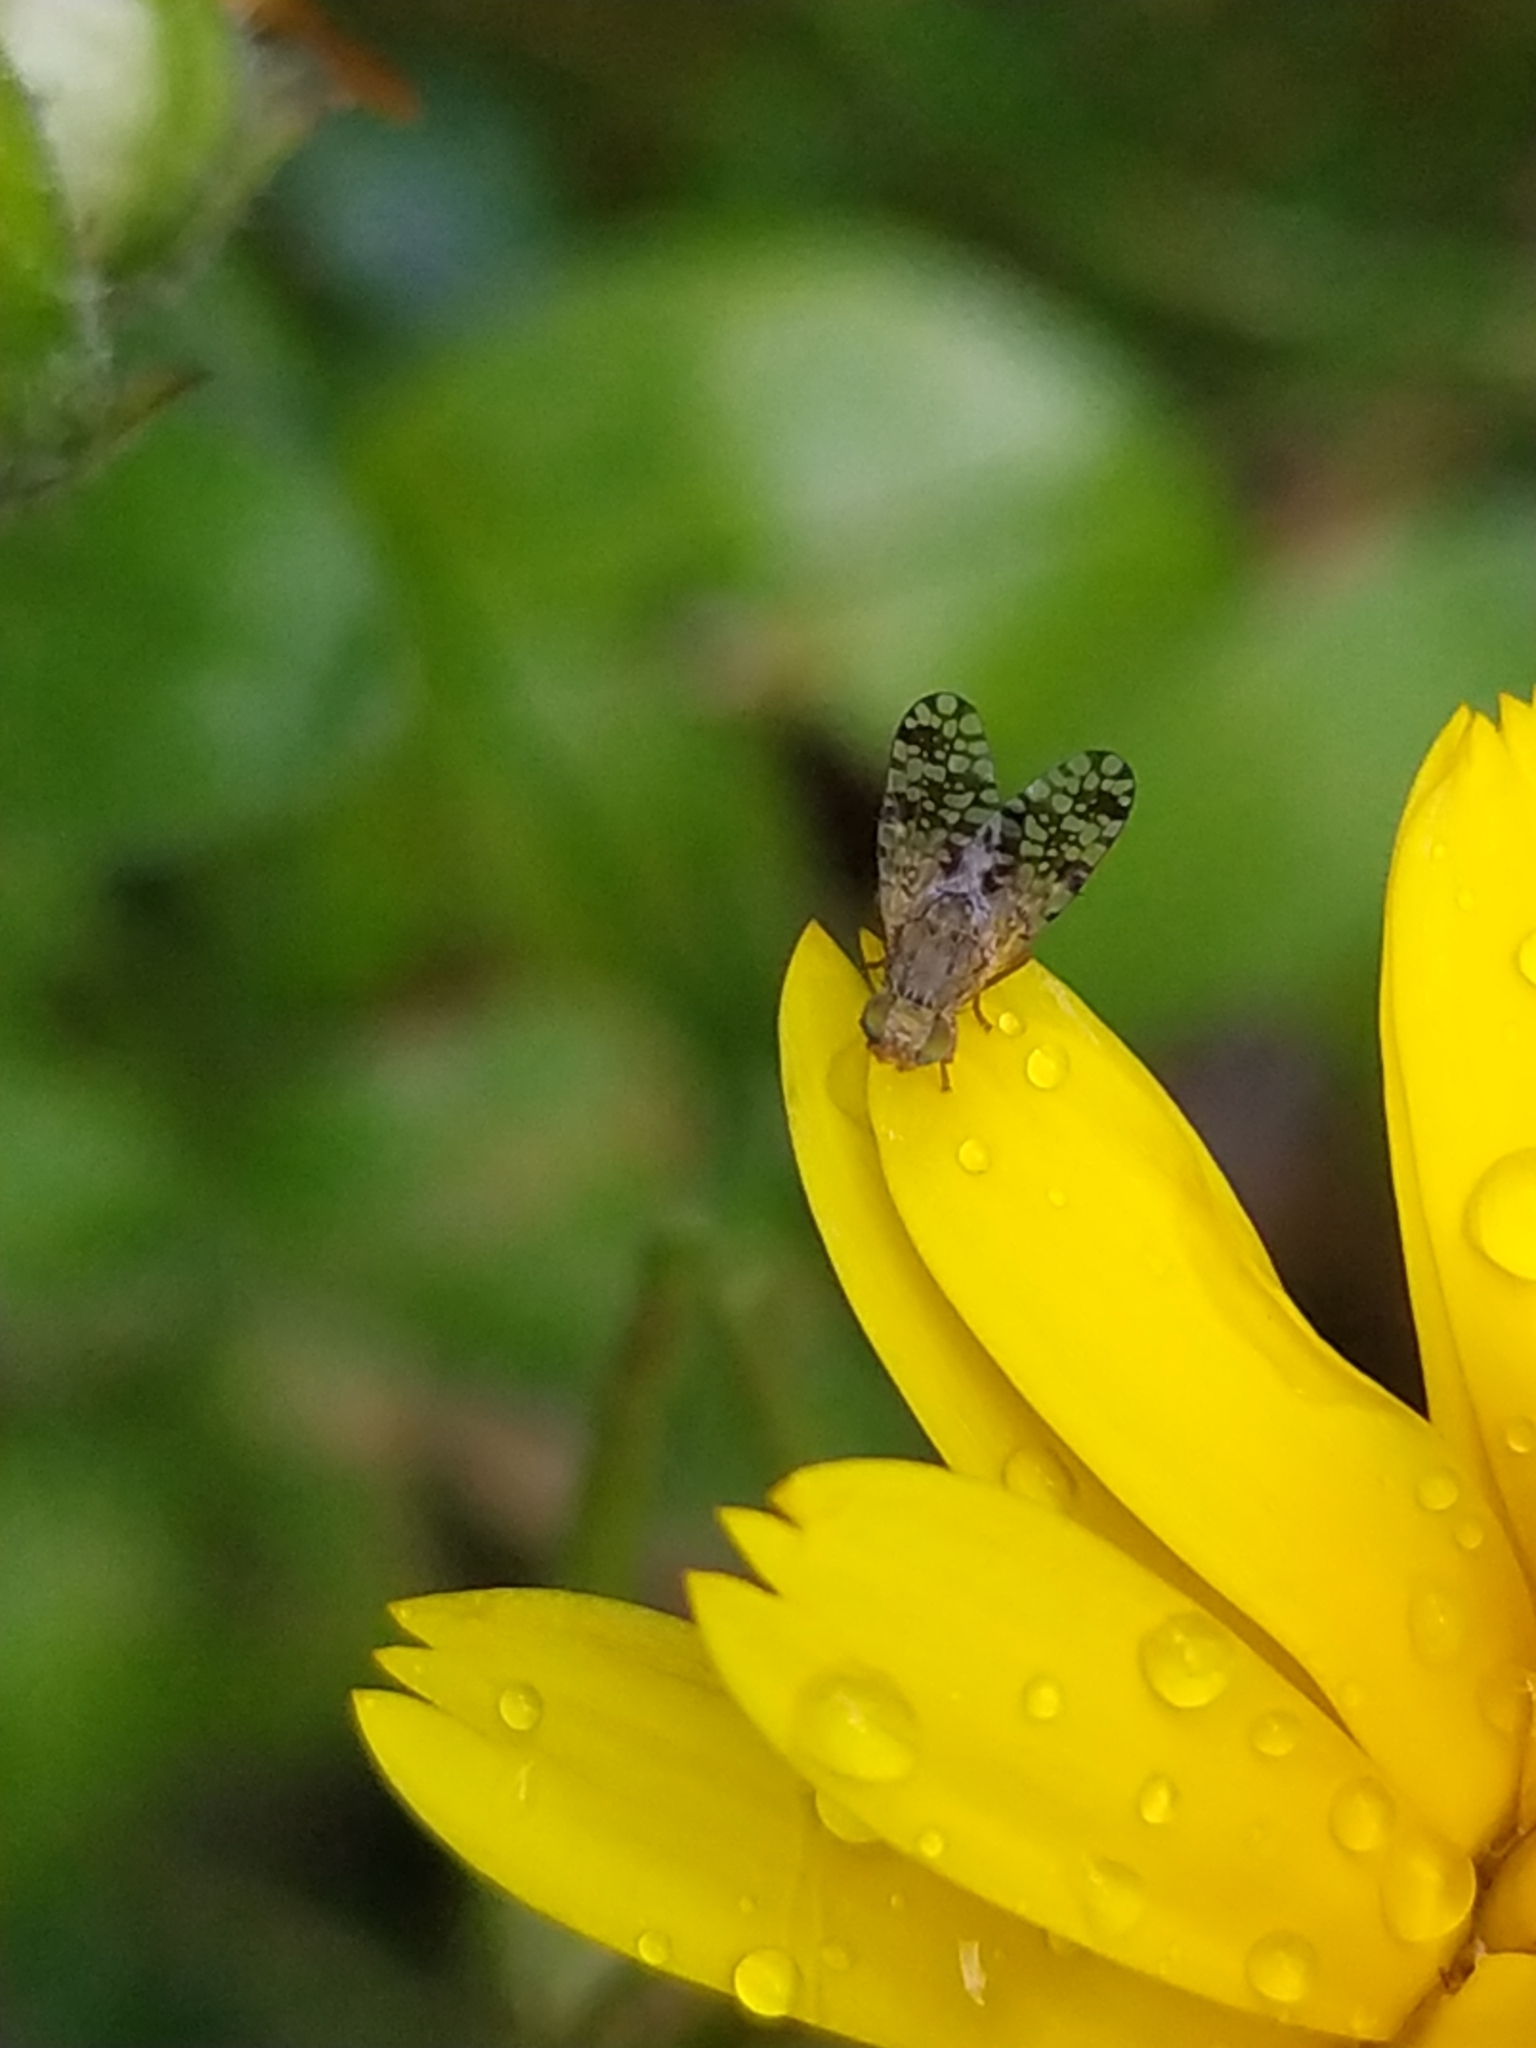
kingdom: Animalia
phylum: Arthropoda
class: Insecta
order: Diptera
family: Tephritidae
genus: Tephritis
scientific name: Tephritis nigricauda
